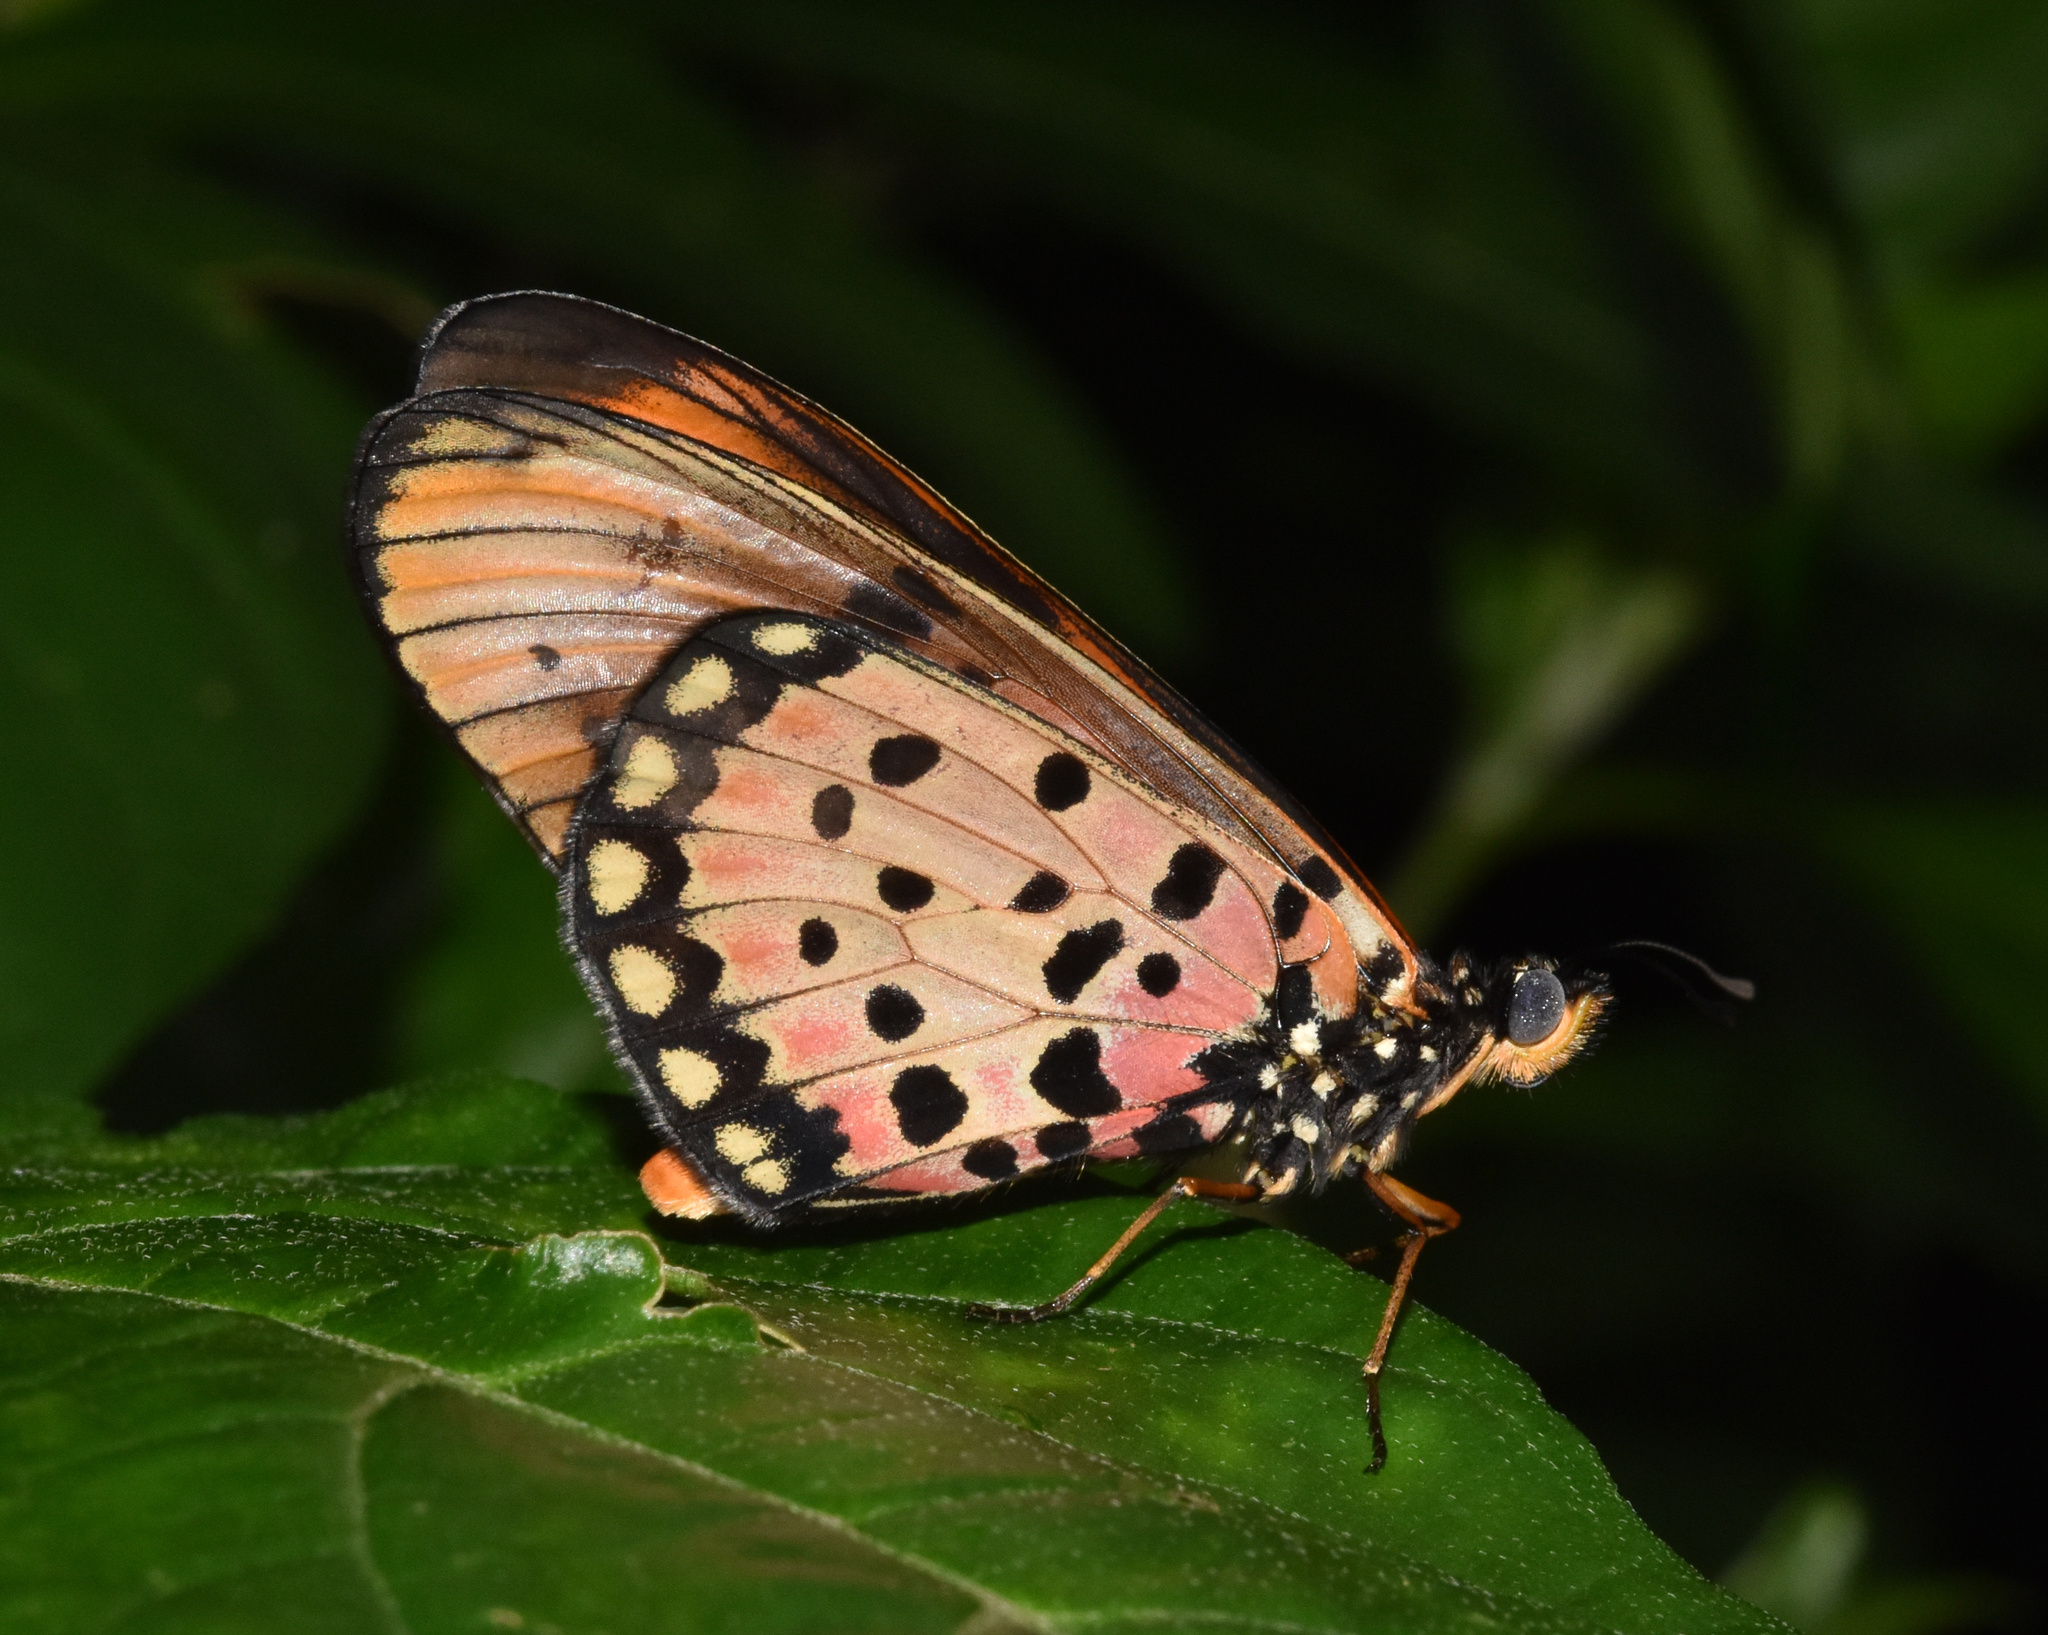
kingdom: Animalia
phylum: Arthropoda
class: Insecta
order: Lepidoptera
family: Nymphalidae
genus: Stephenia
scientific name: Stephenia
